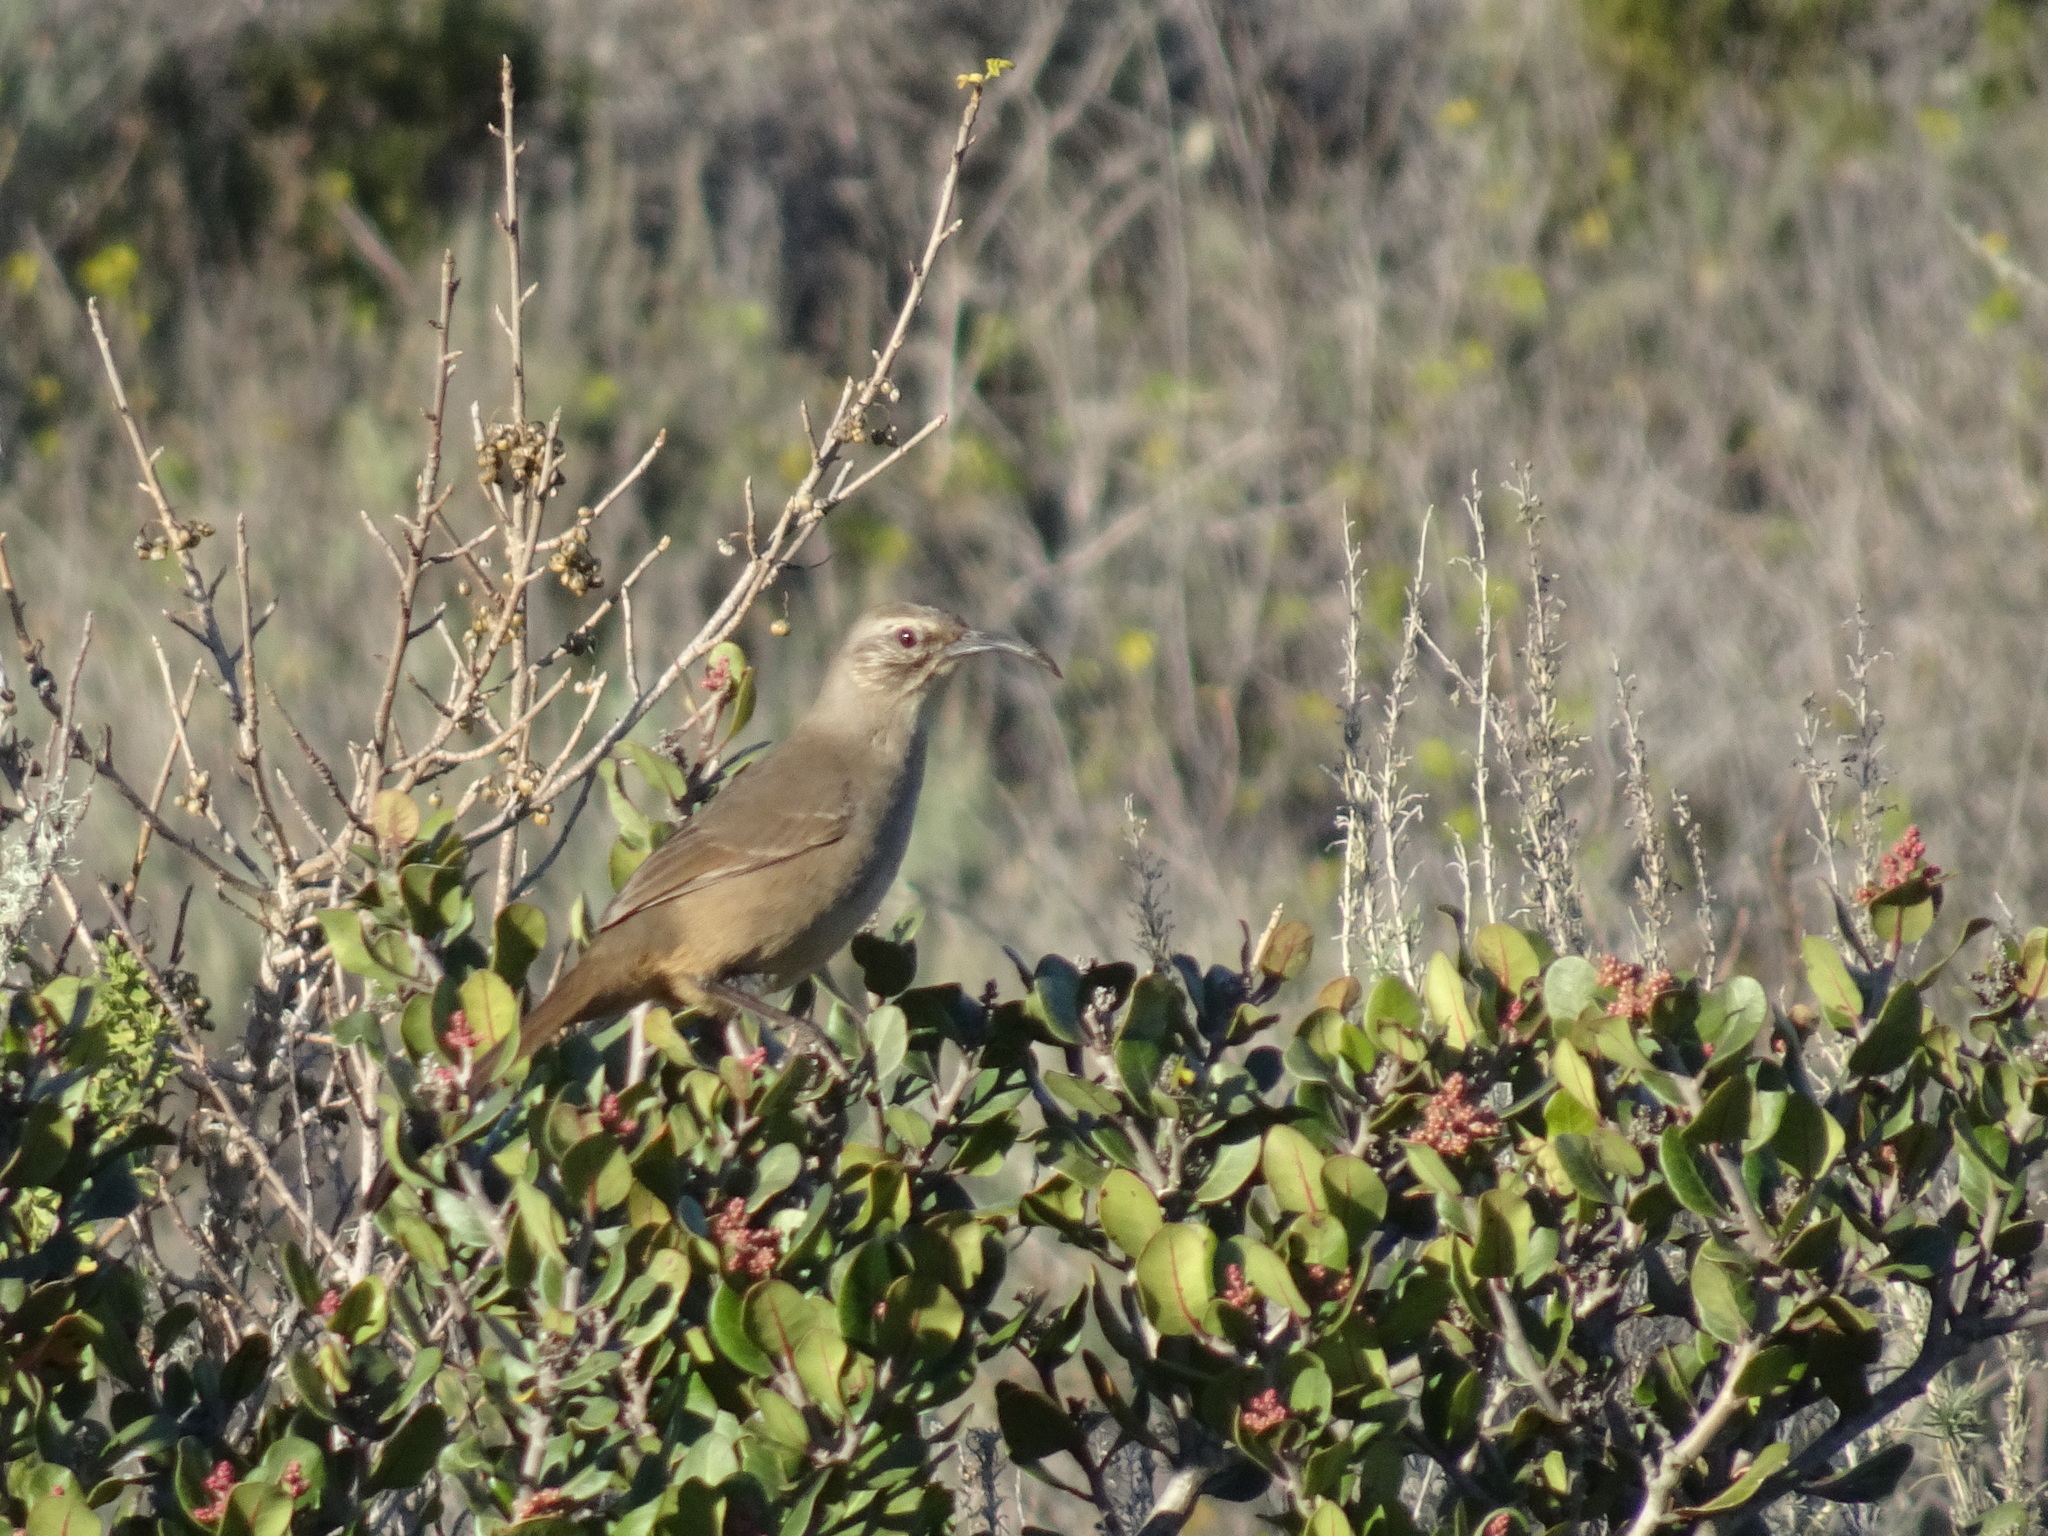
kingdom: Animalia
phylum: Chordata
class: Aves
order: Passeriformes
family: Mimidae
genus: Toxostoma
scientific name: Toxostoma redivivum
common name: California thrasher
